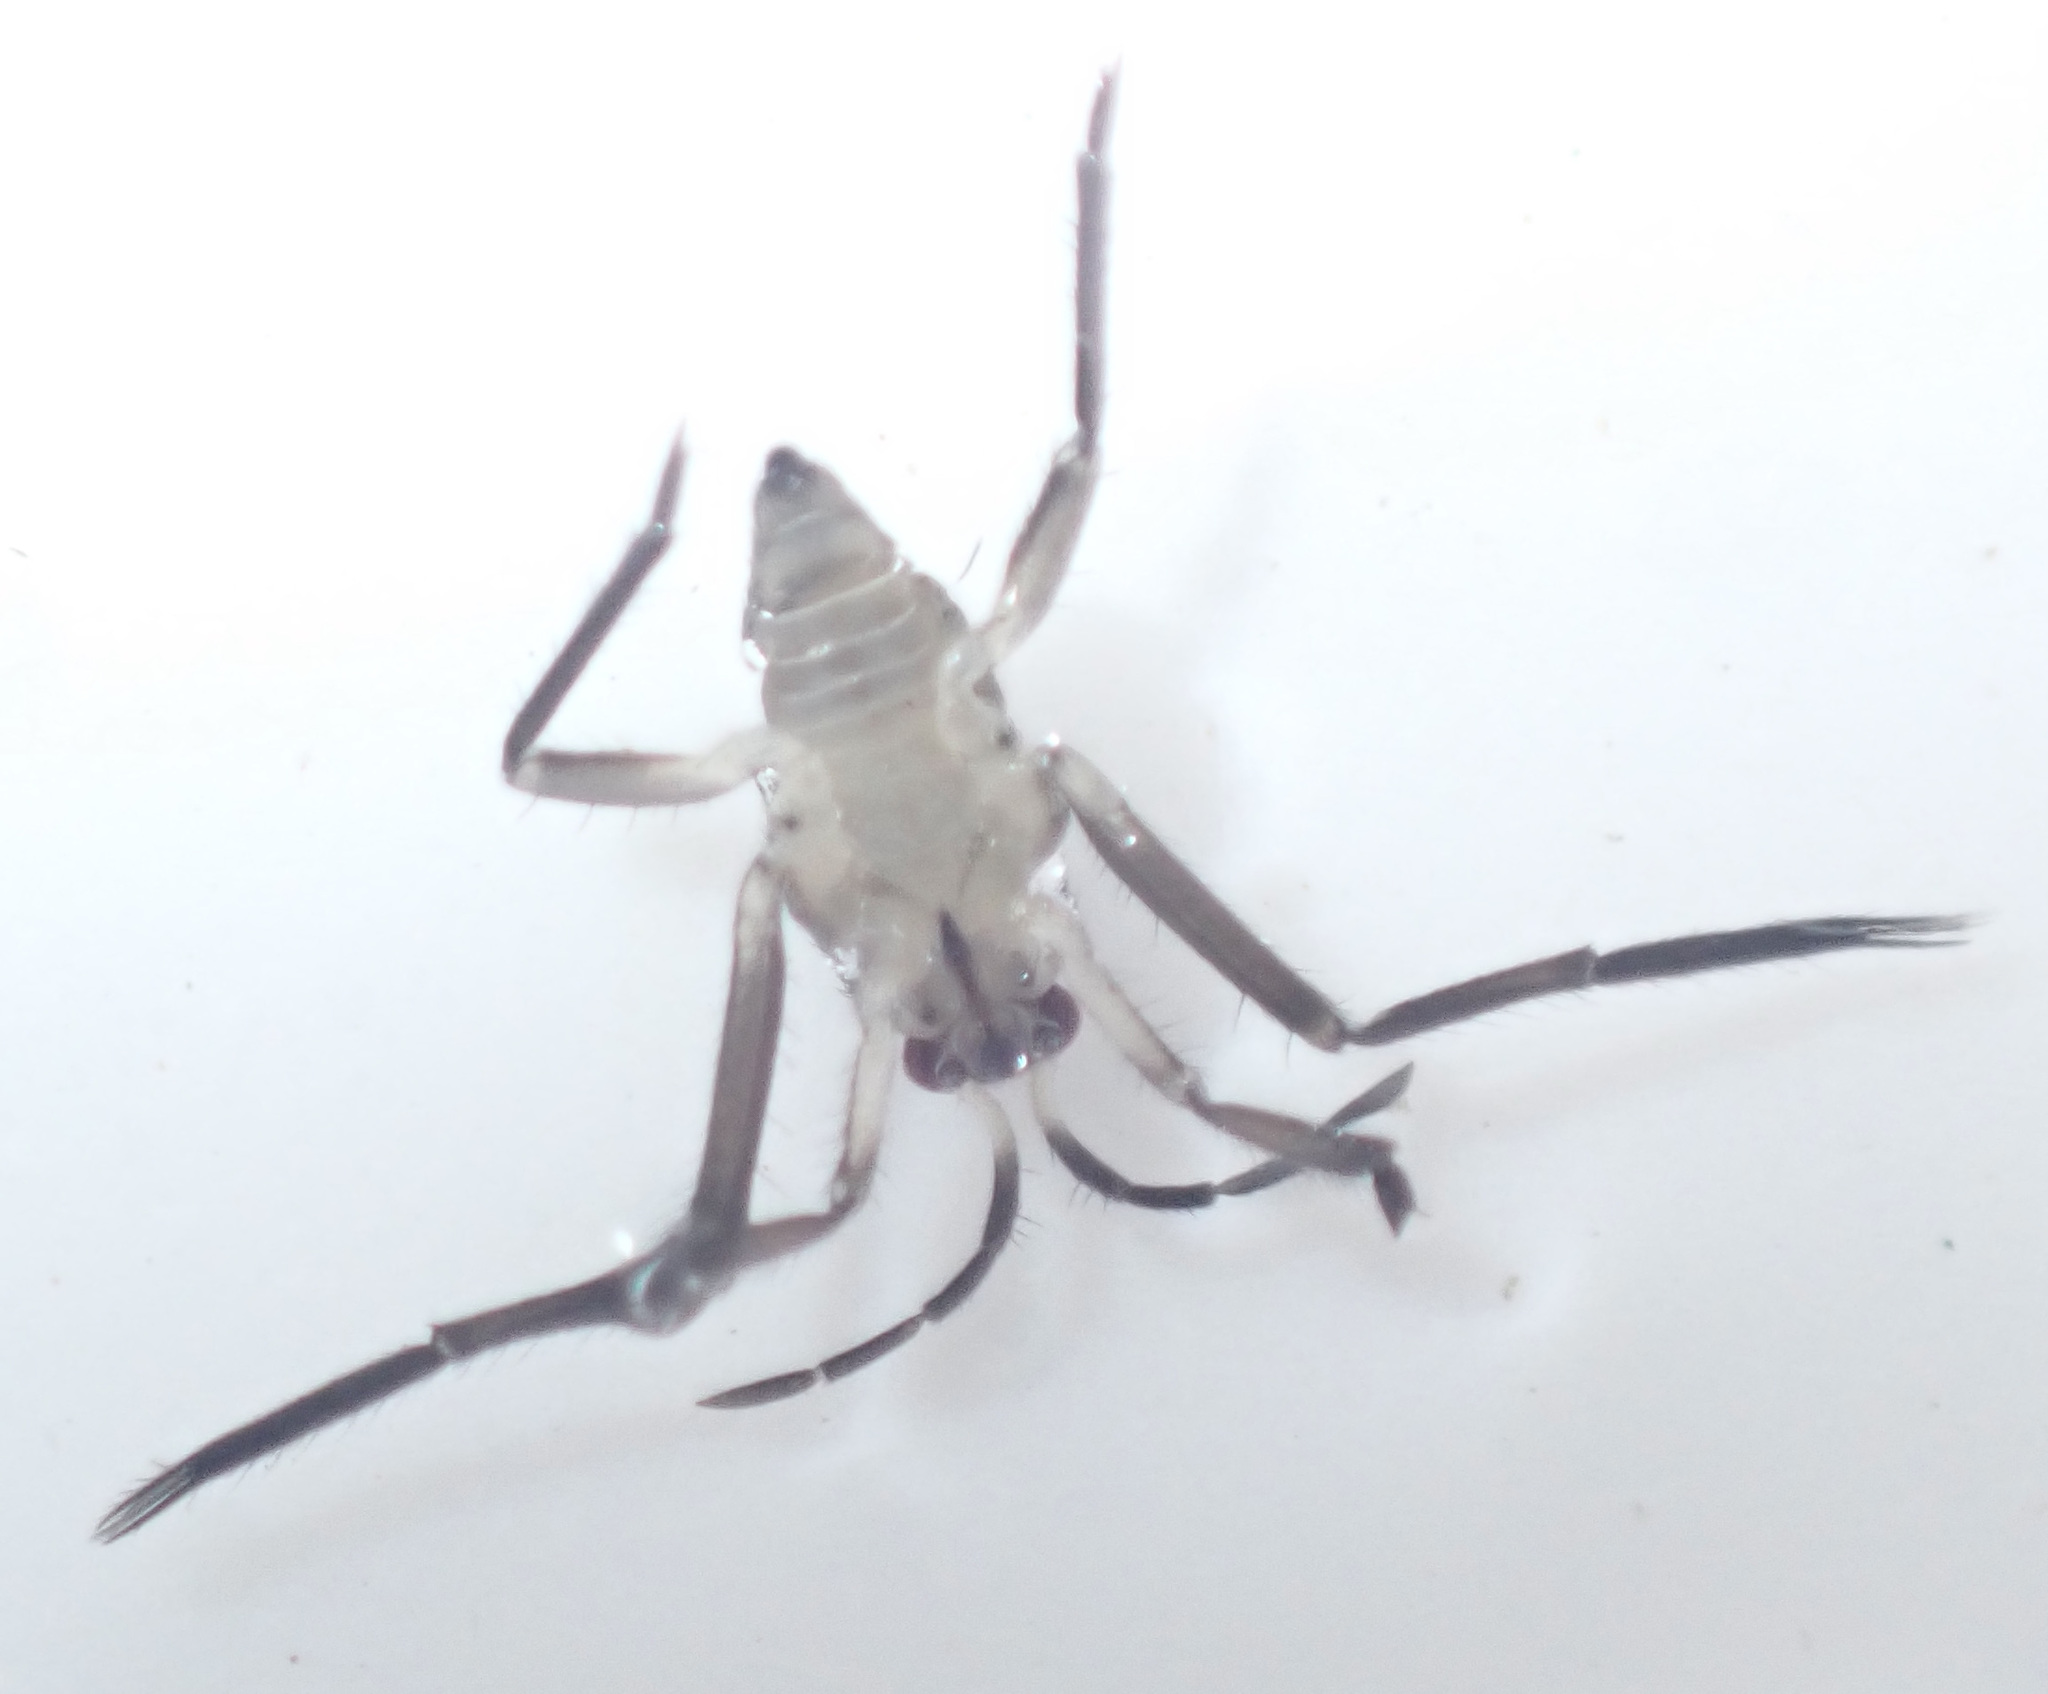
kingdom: Animalia
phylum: Arthropoda
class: Insecta
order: Hemiptera
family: Veliidae
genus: Rhagovelia
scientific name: Rhagovelia
